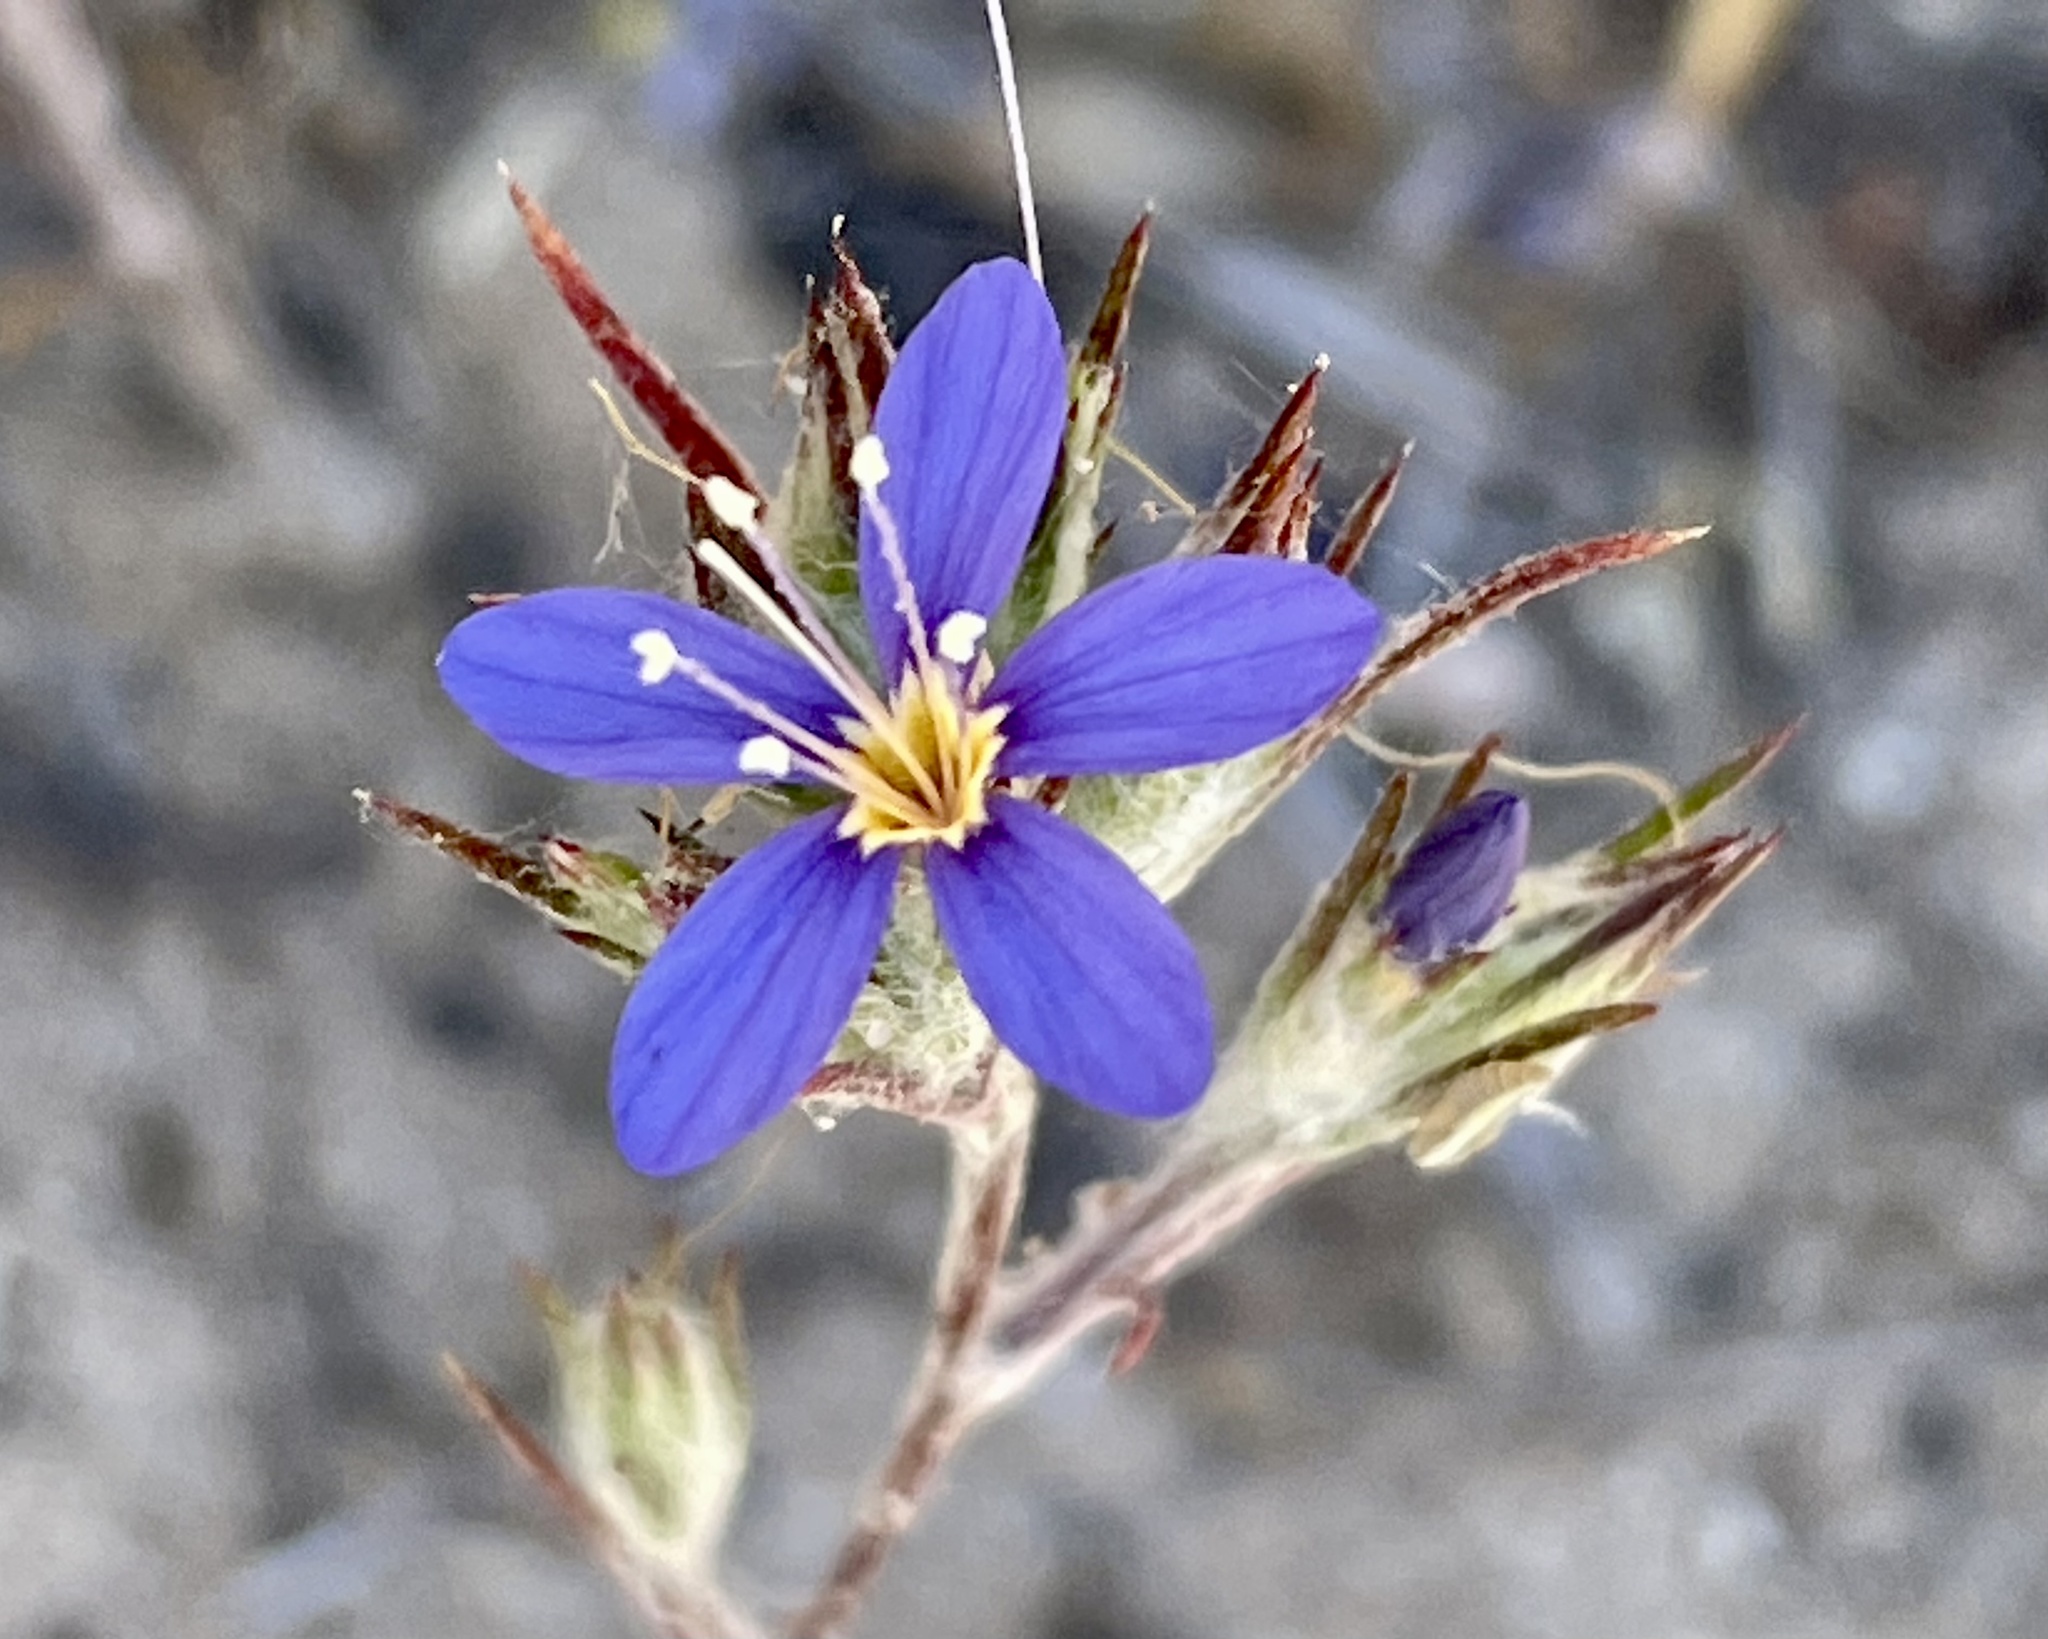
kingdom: Plantae
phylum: Tracheophyta
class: Magnoliopsida
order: Ericales
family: Polemoniaceae
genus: Eriastrum
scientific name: Eriastrum virgatum
